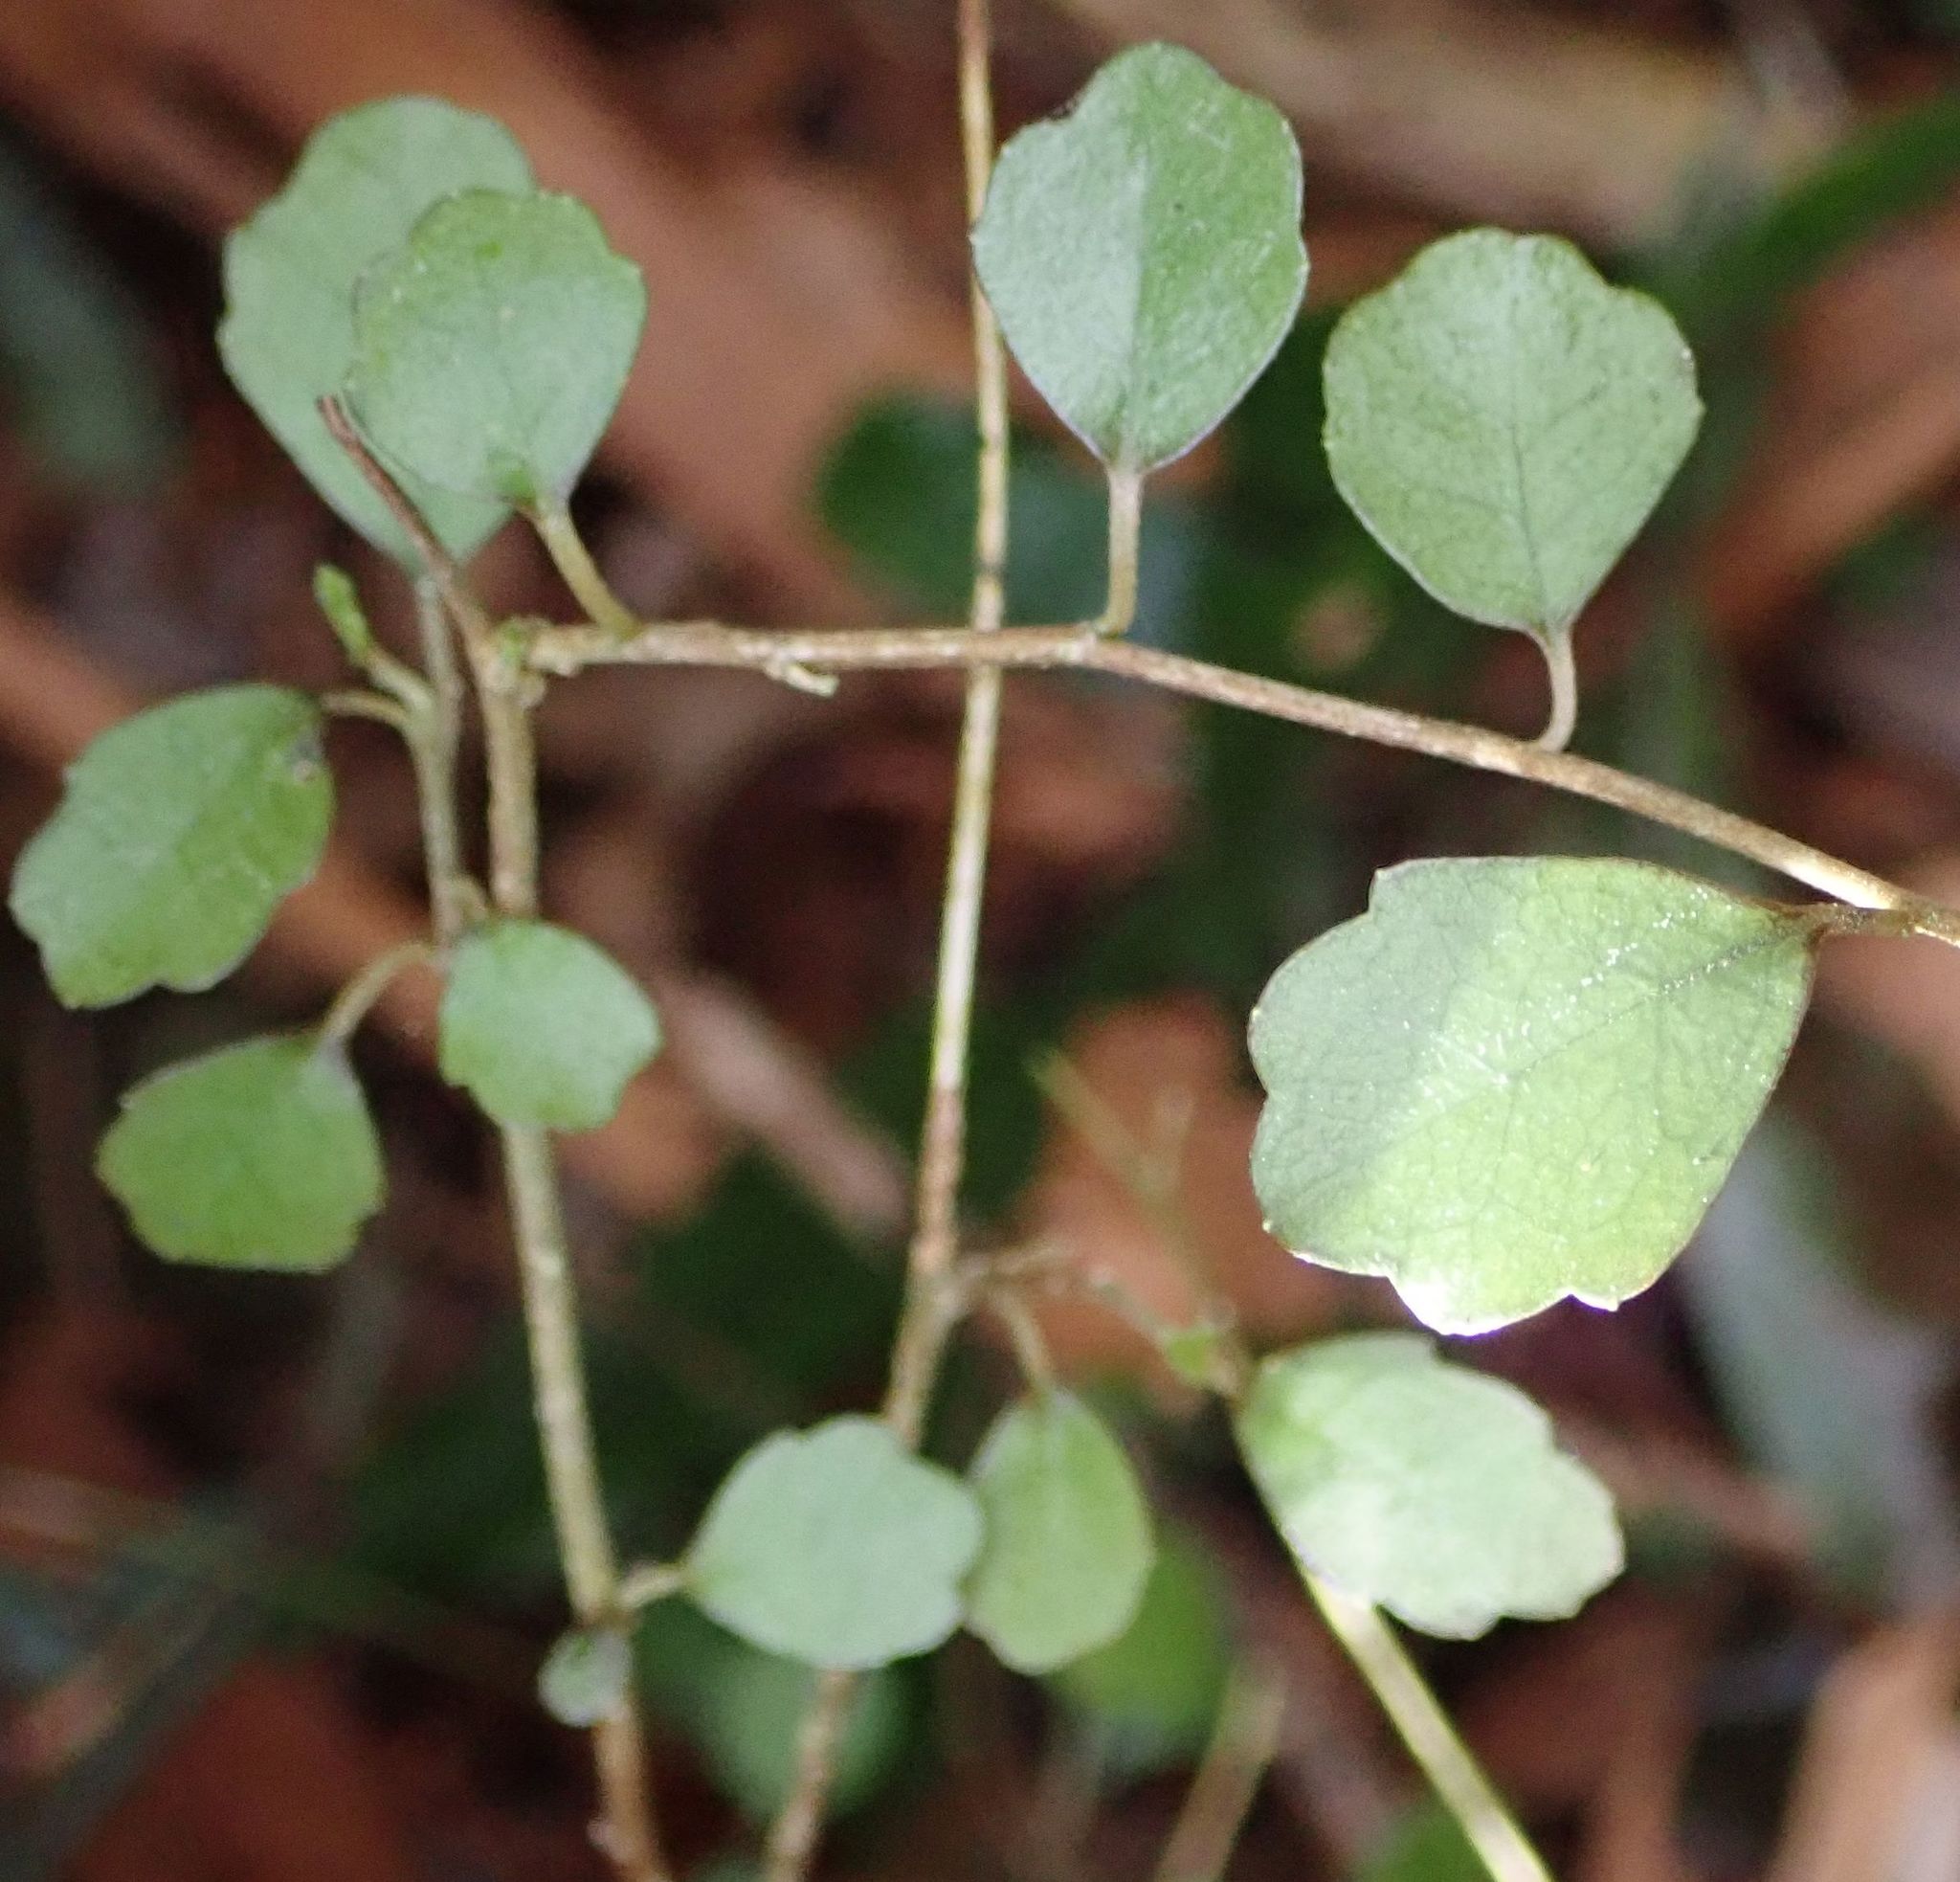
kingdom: Plantae
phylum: Tracheophyta
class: Magnoliopsida
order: Apiales
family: Pennantiaceae
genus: Pennantia
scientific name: Pennantia corymbosa
